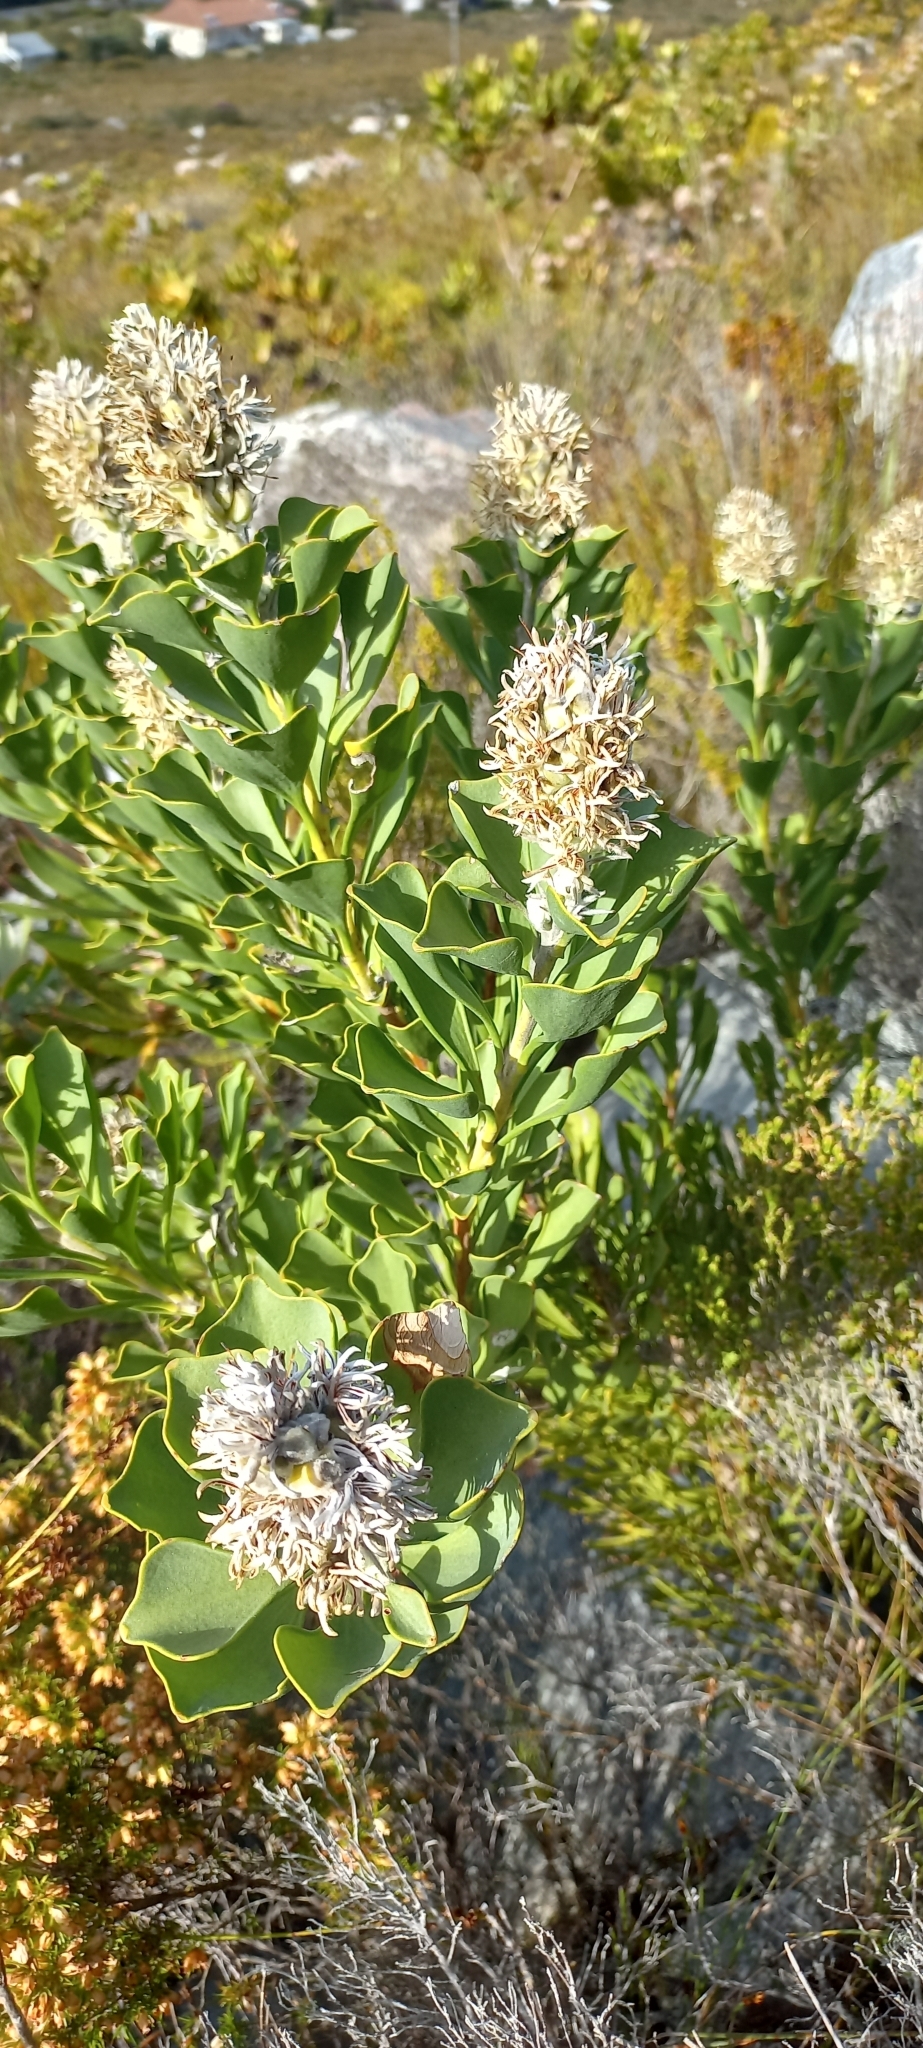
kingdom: Plantae
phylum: Tracheophyta
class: Magnoliopsida
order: Proteales
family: Proteaceae
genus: Paranomus
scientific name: Paranomus sceptrum-gustavianus
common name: King gustav's sceptre
